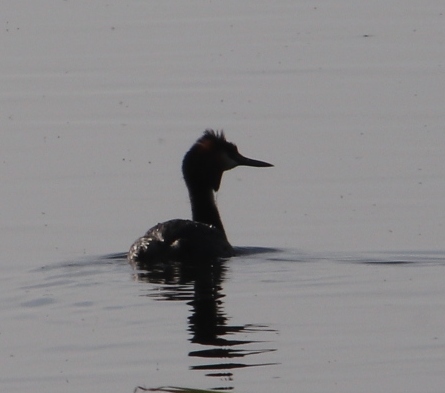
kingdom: Animalia
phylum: Chordata
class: Aves
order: Podicipediformes
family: Podicipedidae
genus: Podiceps
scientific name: Podiceps nigricollis
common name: Black-necked grebe
